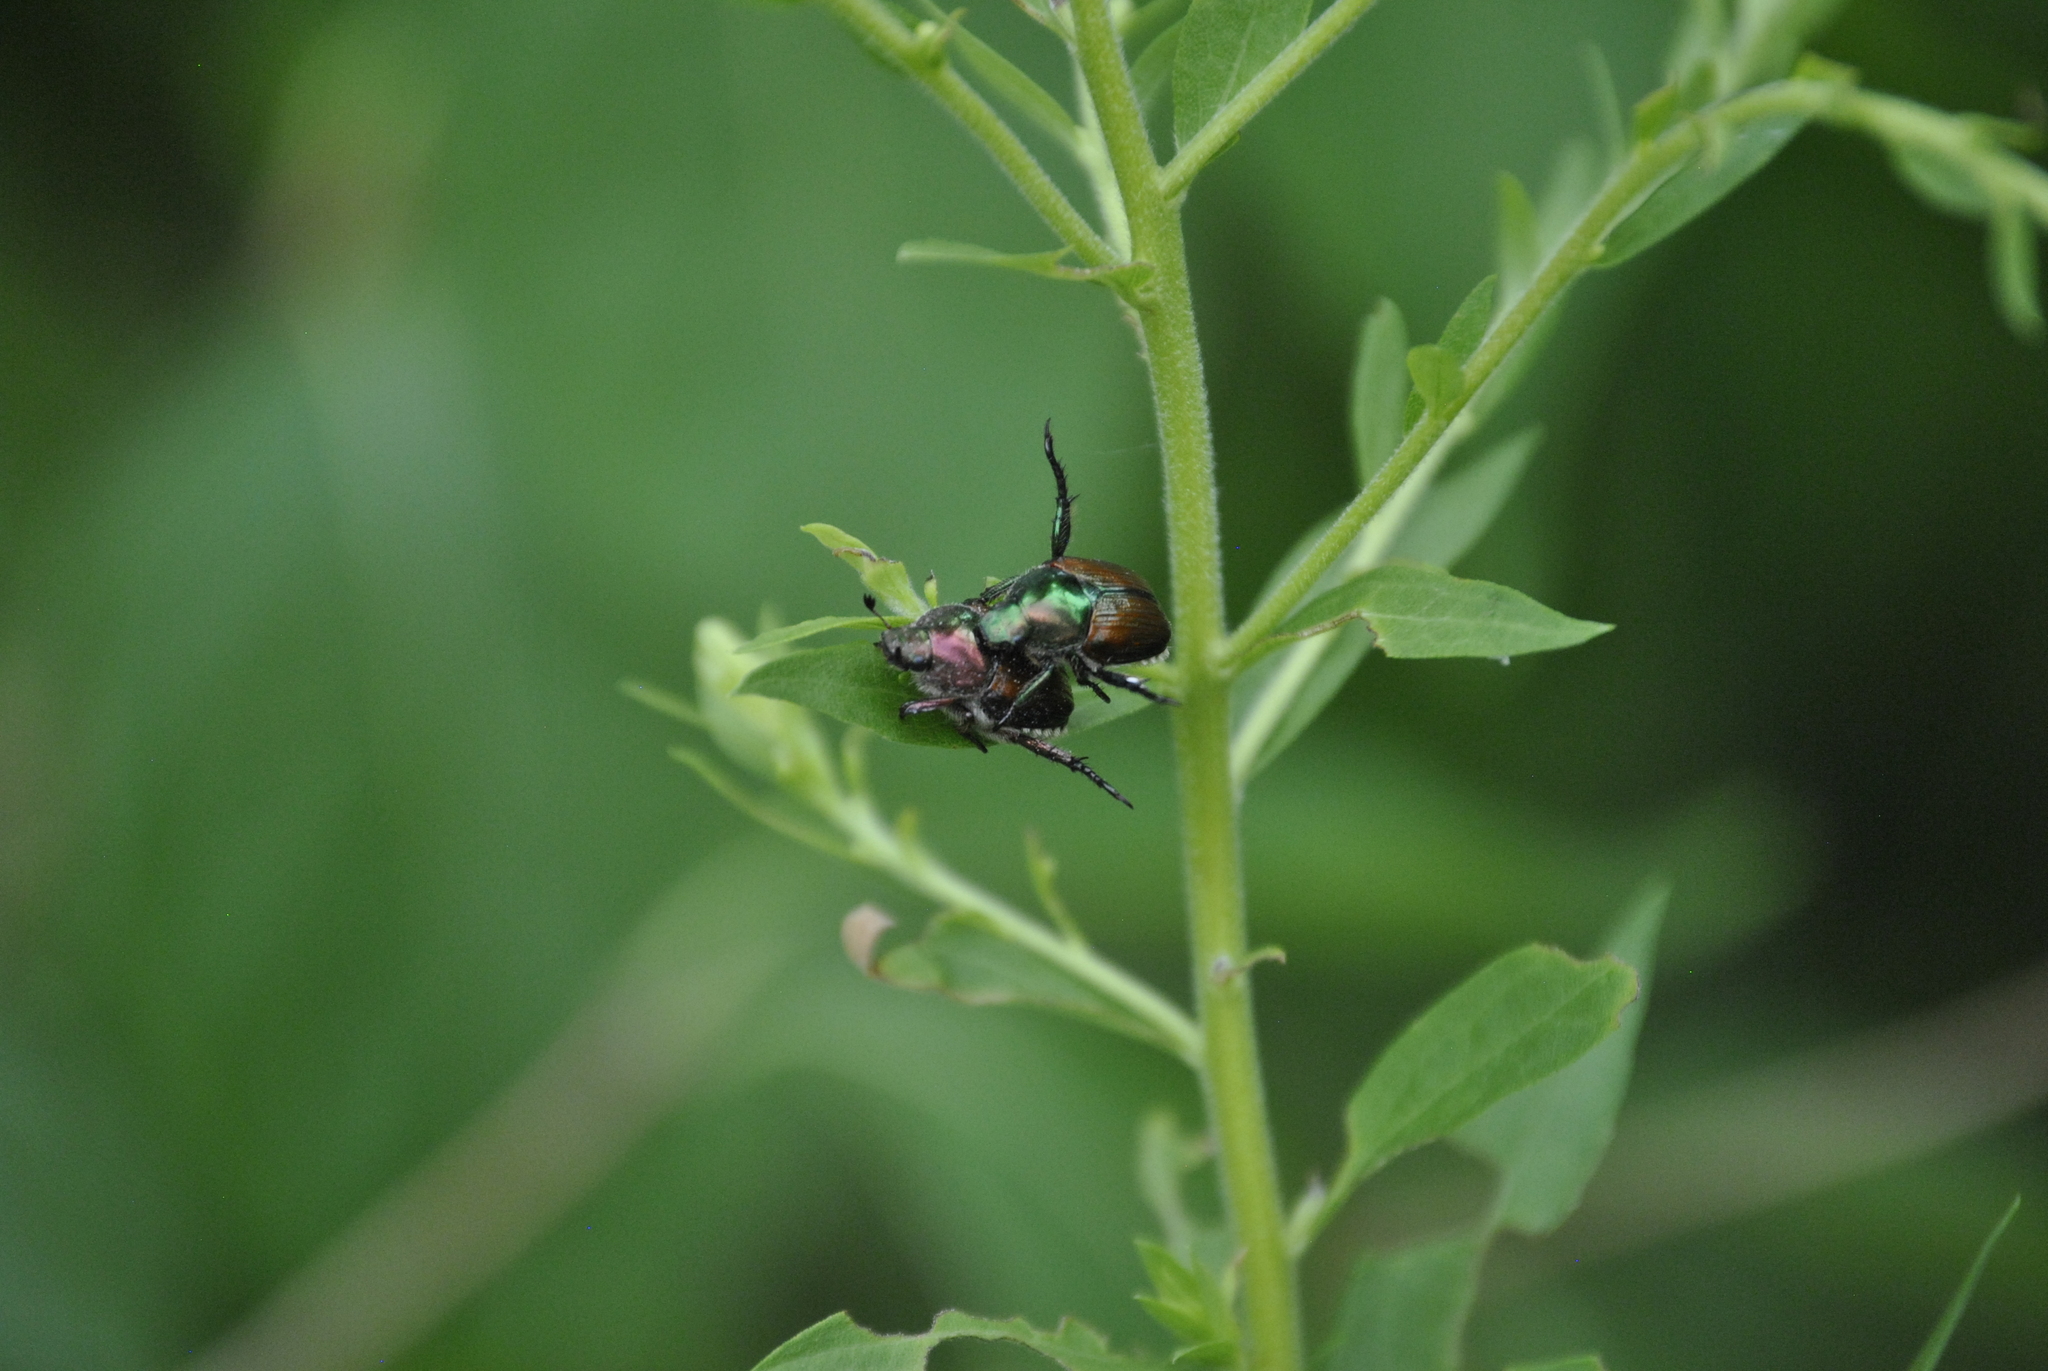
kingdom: Animalia
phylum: Arthropoda
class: Insecta
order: Coleoptera
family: Scarabaeidae
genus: Popillia
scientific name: Popillia japonica
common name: Japanese beetle
